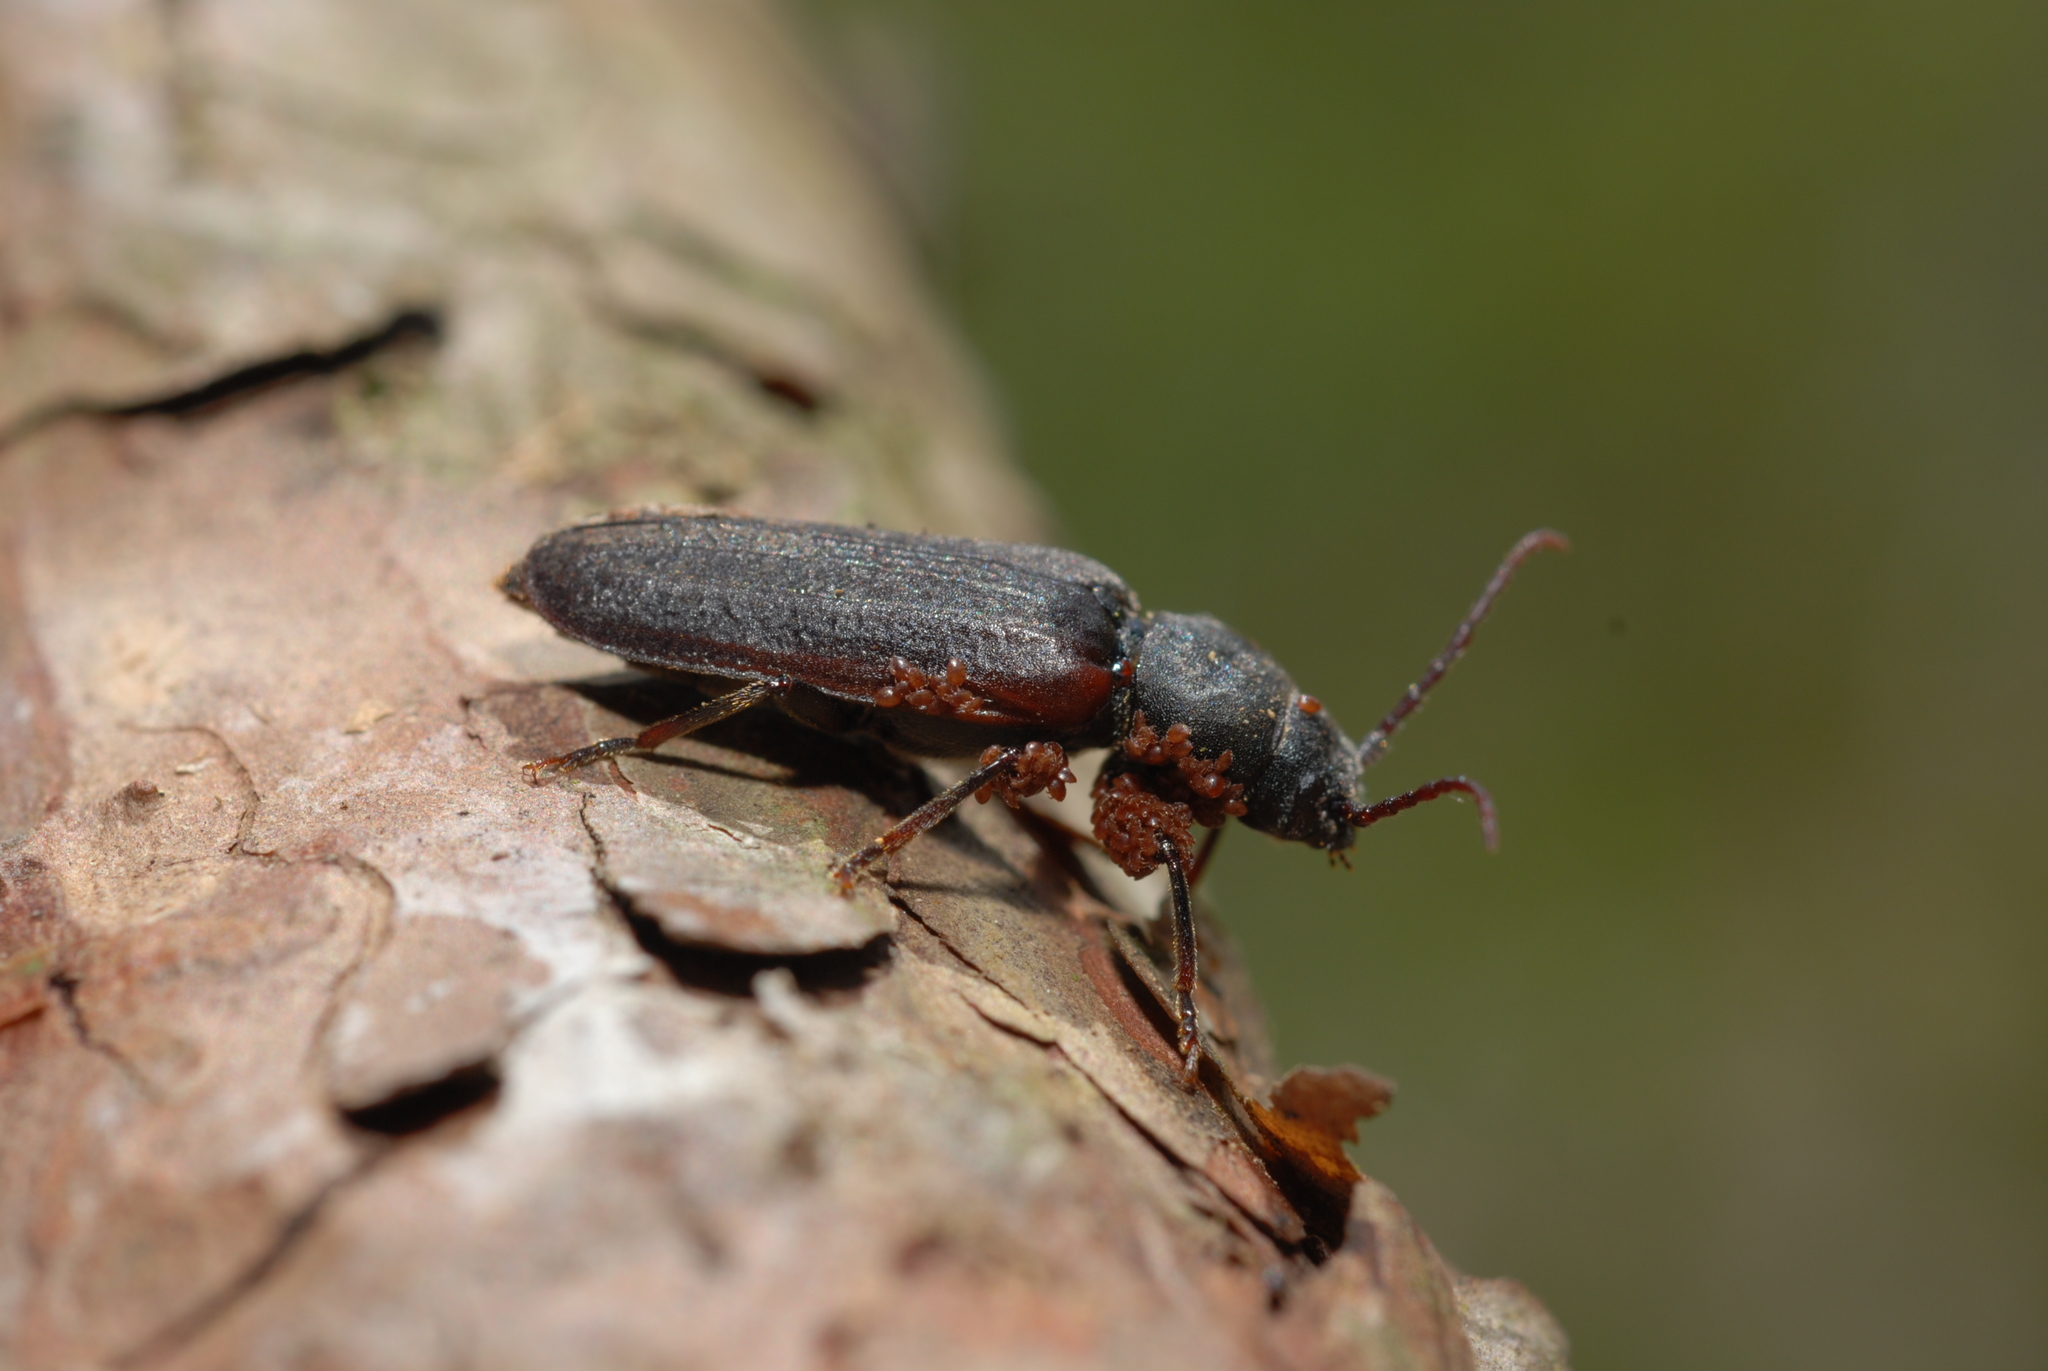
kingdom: Animalia
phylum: Arthropoda
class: Insecta
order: Coleoptera
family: Cerambycidae
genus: Asemum
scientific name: Asemum striatum
